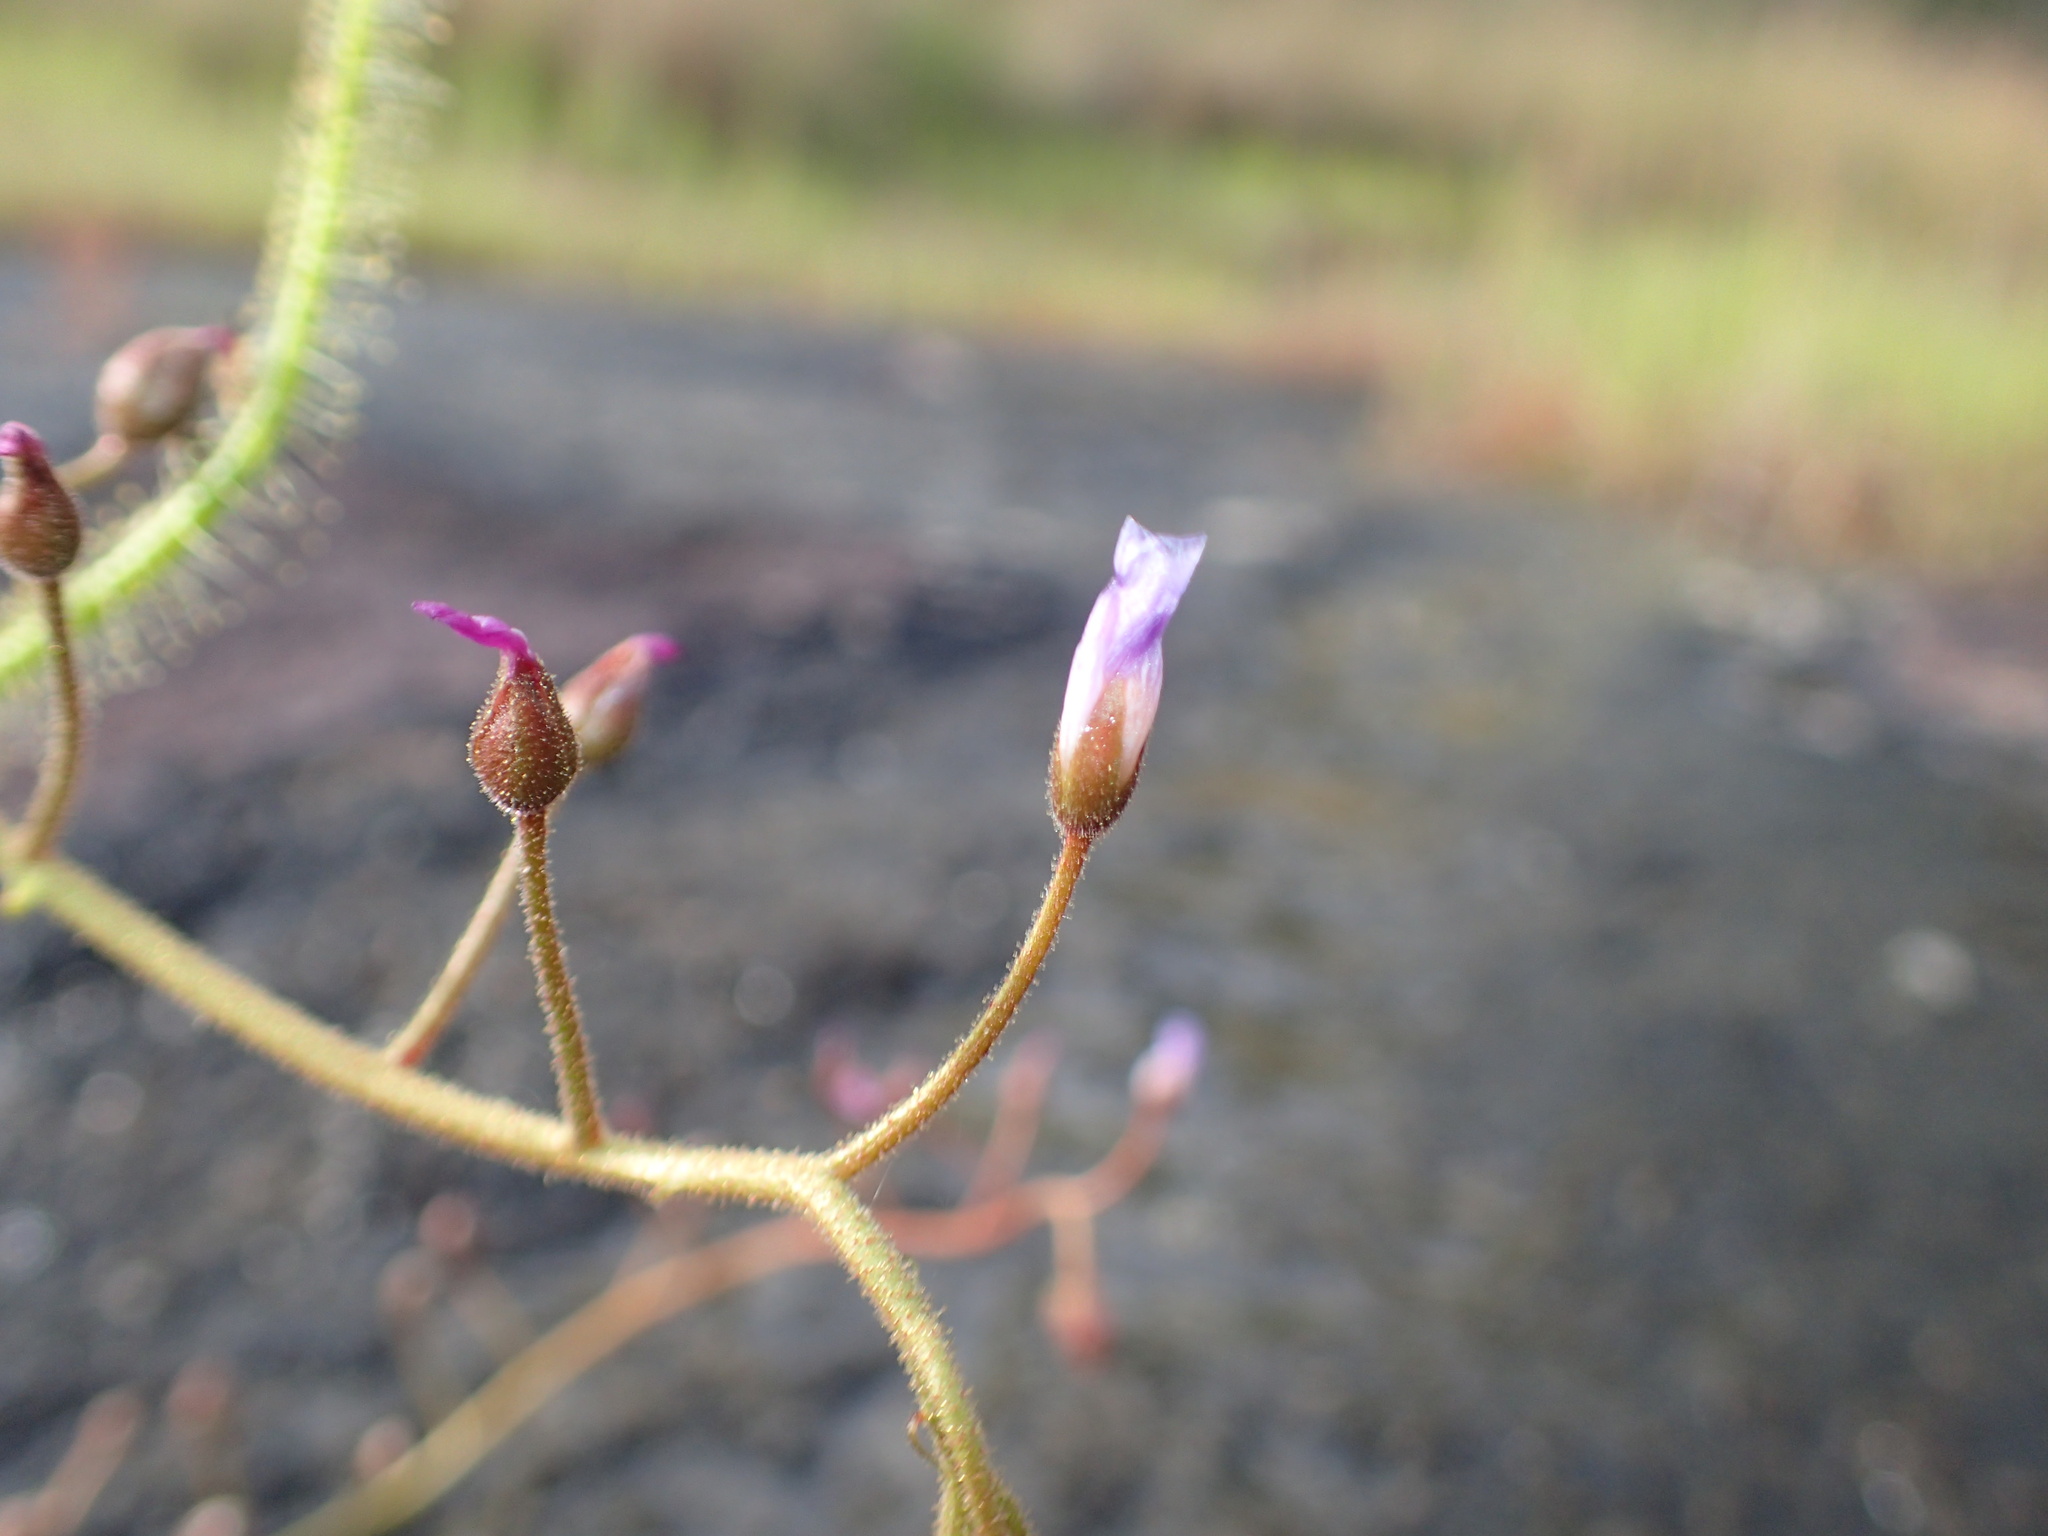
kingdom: Plantae
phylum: Tracheophyta
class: Magnoliopsida
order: Caryophyllales
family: Droseraceae
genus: Drosera
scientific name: Drosera finlaysoniana
